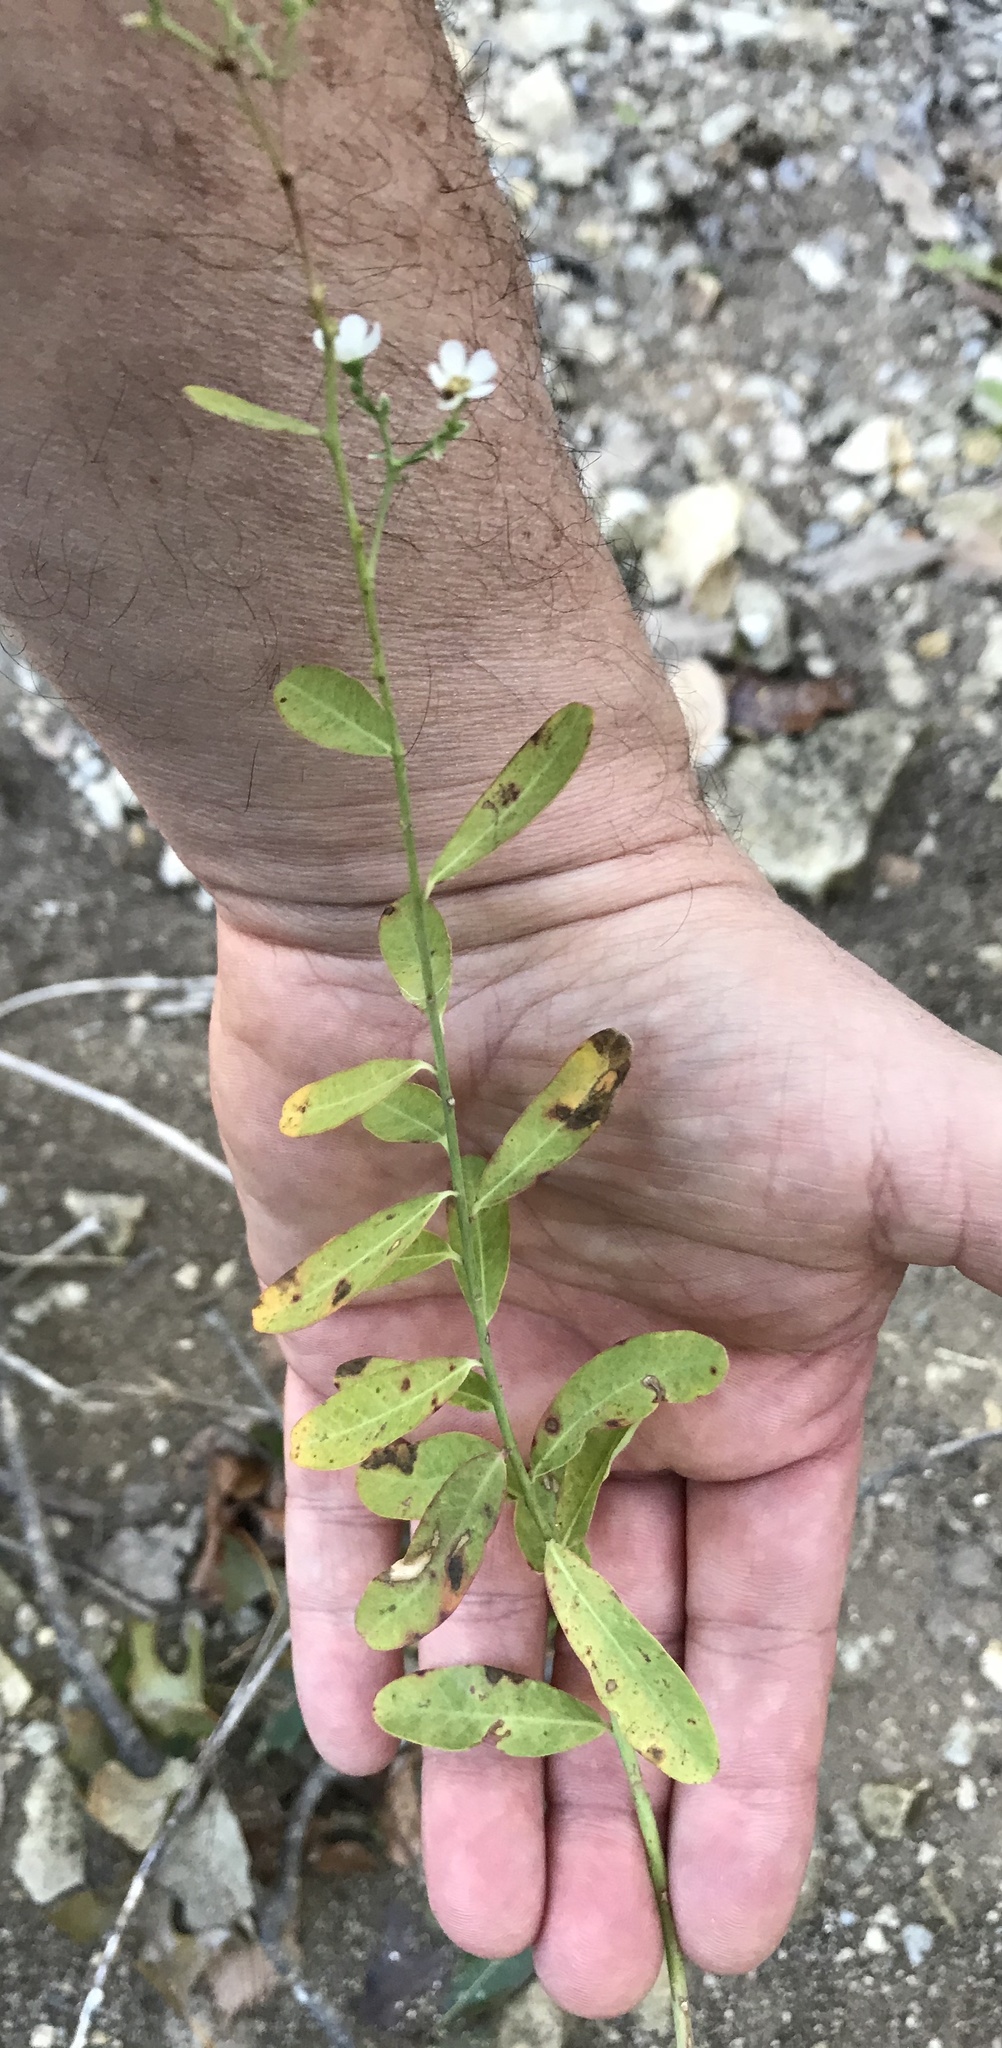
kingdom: Plantae
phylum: Tracheophyta
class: Magnoliopsida
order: Malpighiales
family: Euphorbiaceae
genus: Euphorbia
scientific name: Euphorbia corollata
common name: Flowering spurge
